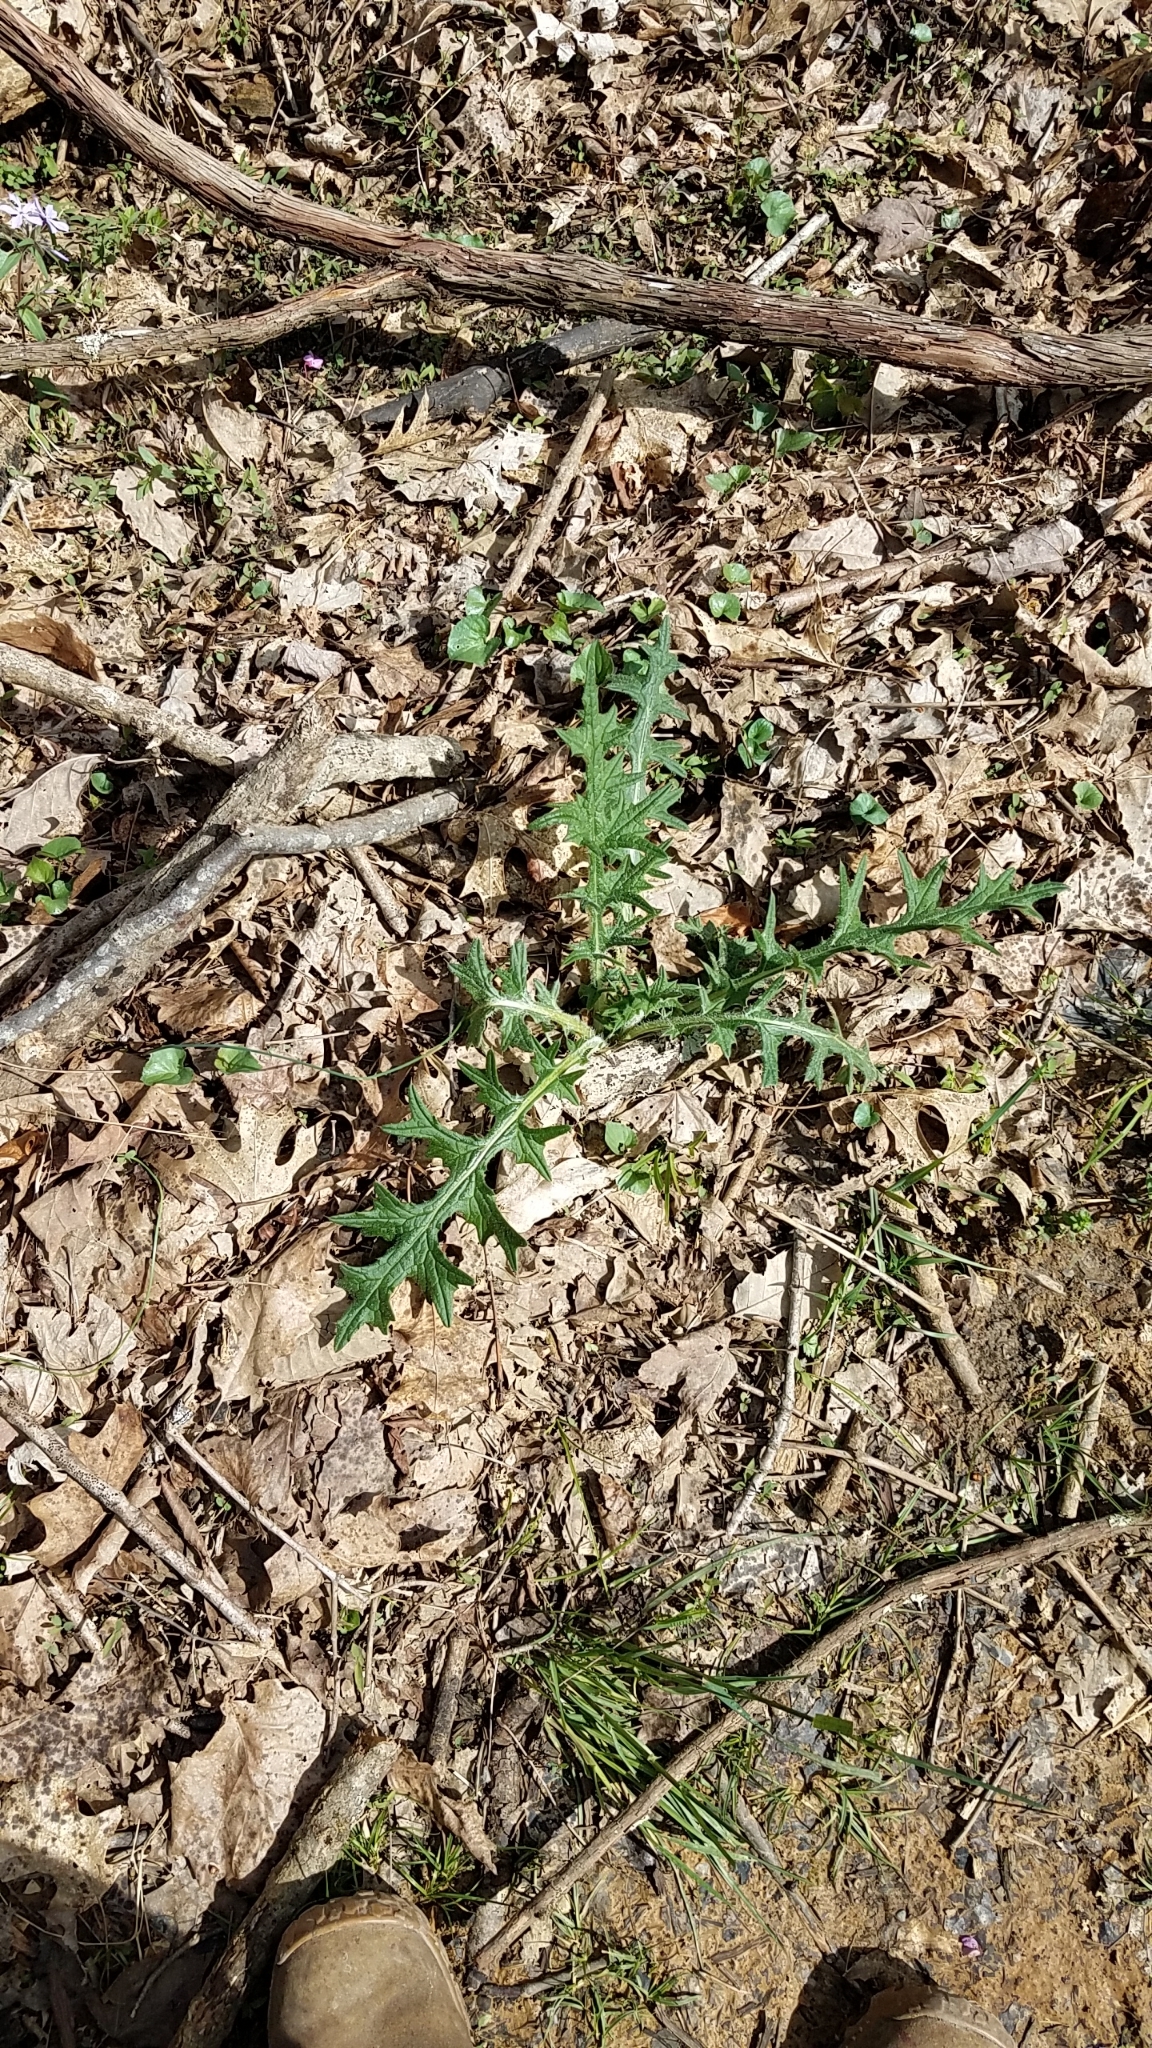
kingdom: Plantae
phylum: Tracheophyta
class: Magnoliopsida
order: Asterales
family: Asteraceae
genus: Cirsium
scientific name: Cirsium vulgare
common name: Bull thistle
